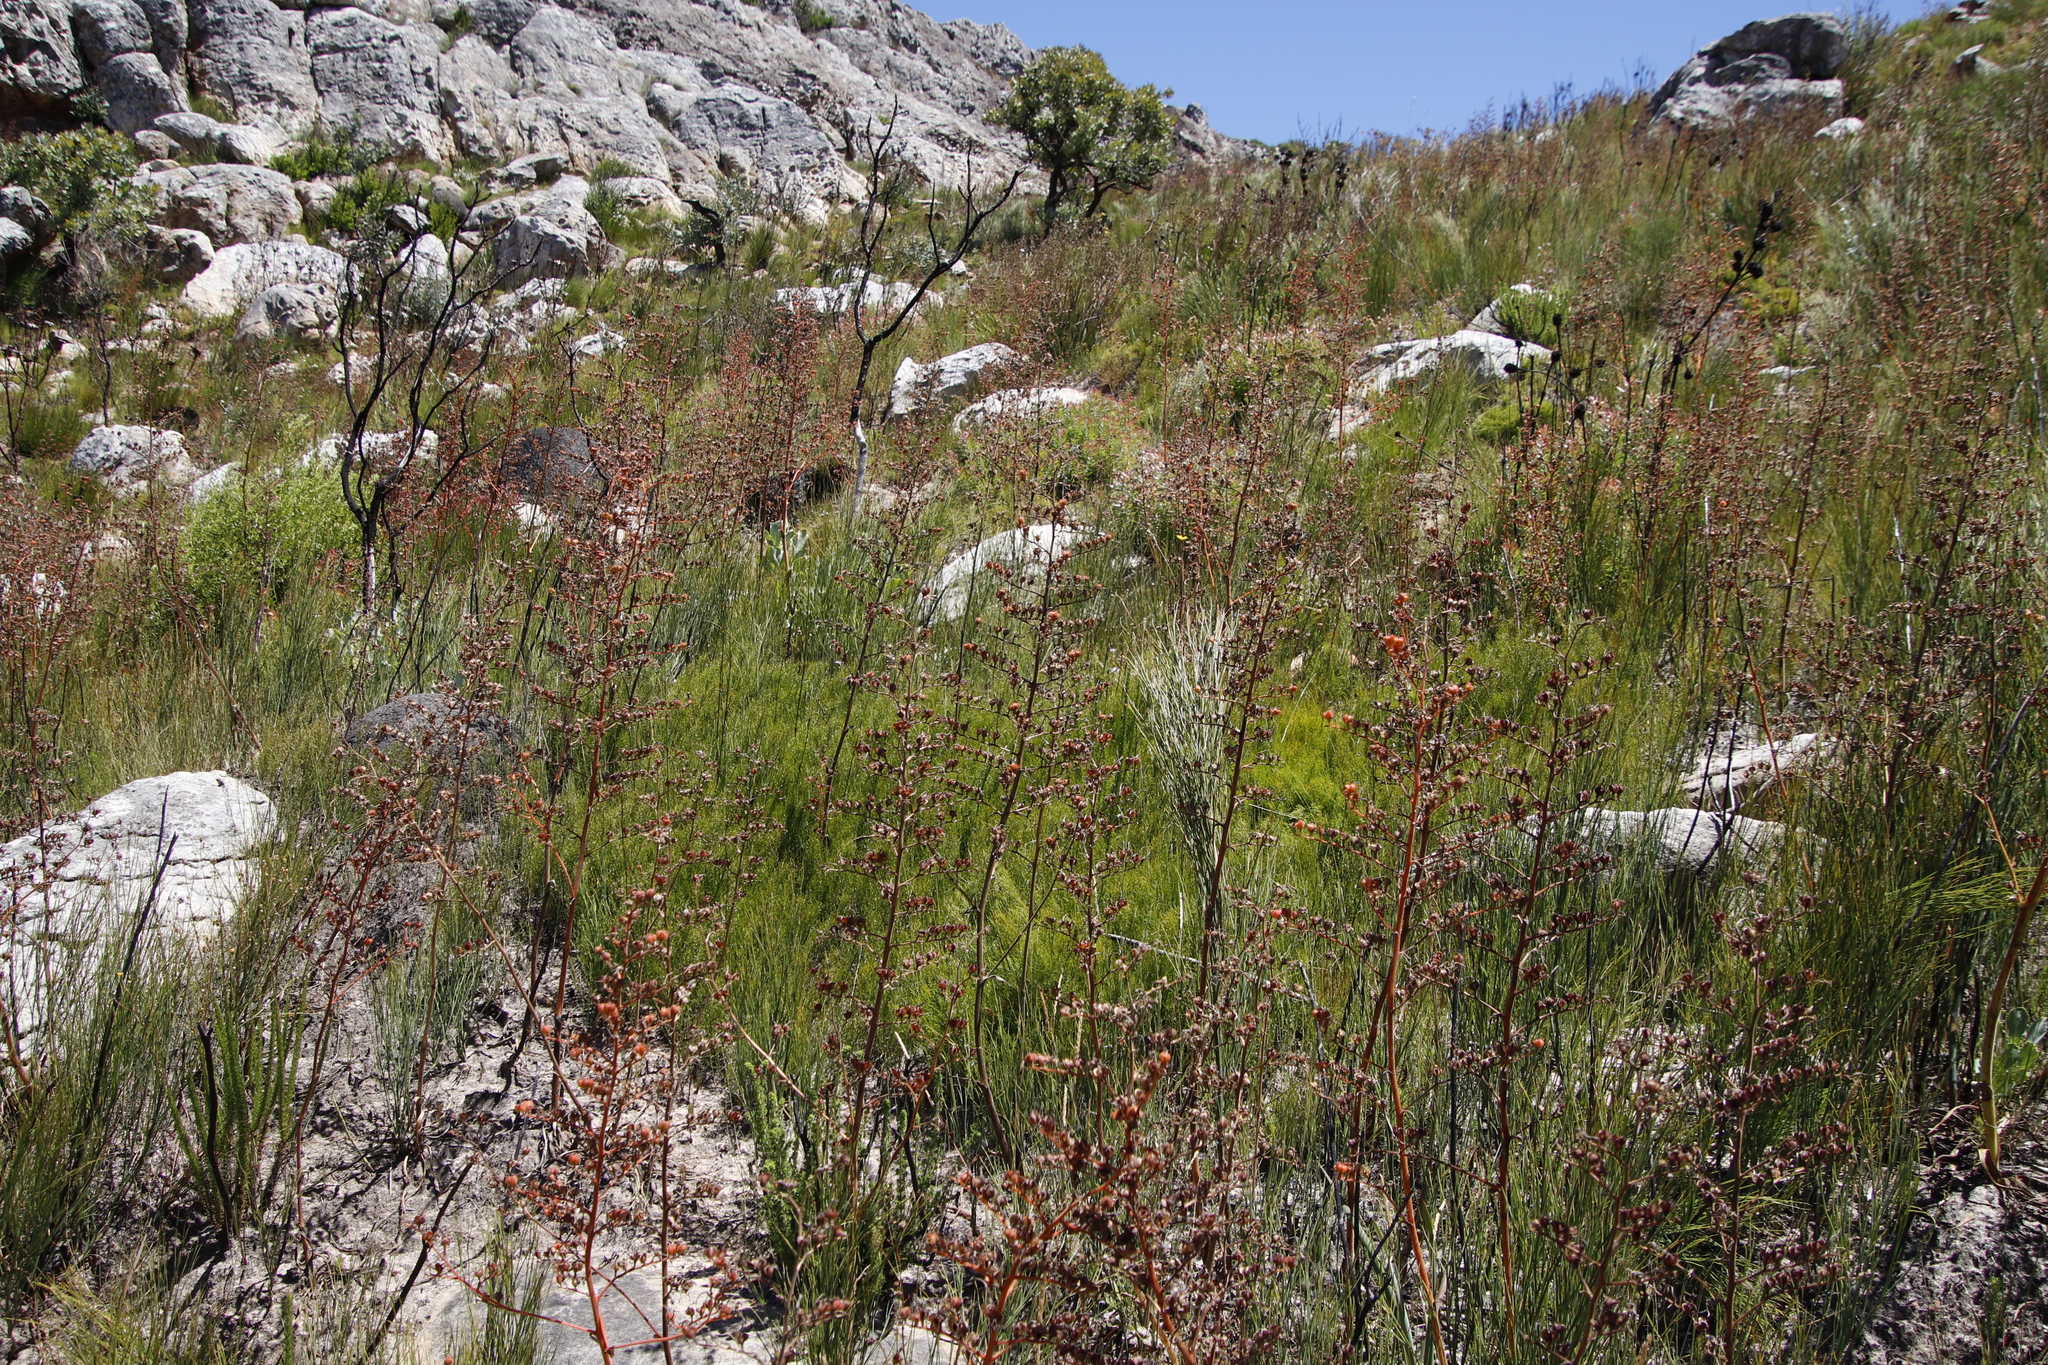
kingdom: Plantae
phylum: Tracheophyta
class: Liliopsida
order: Commelinales
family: Haemodoraceae
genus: Wachendorfia
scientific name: Wachendorfia paniculata
